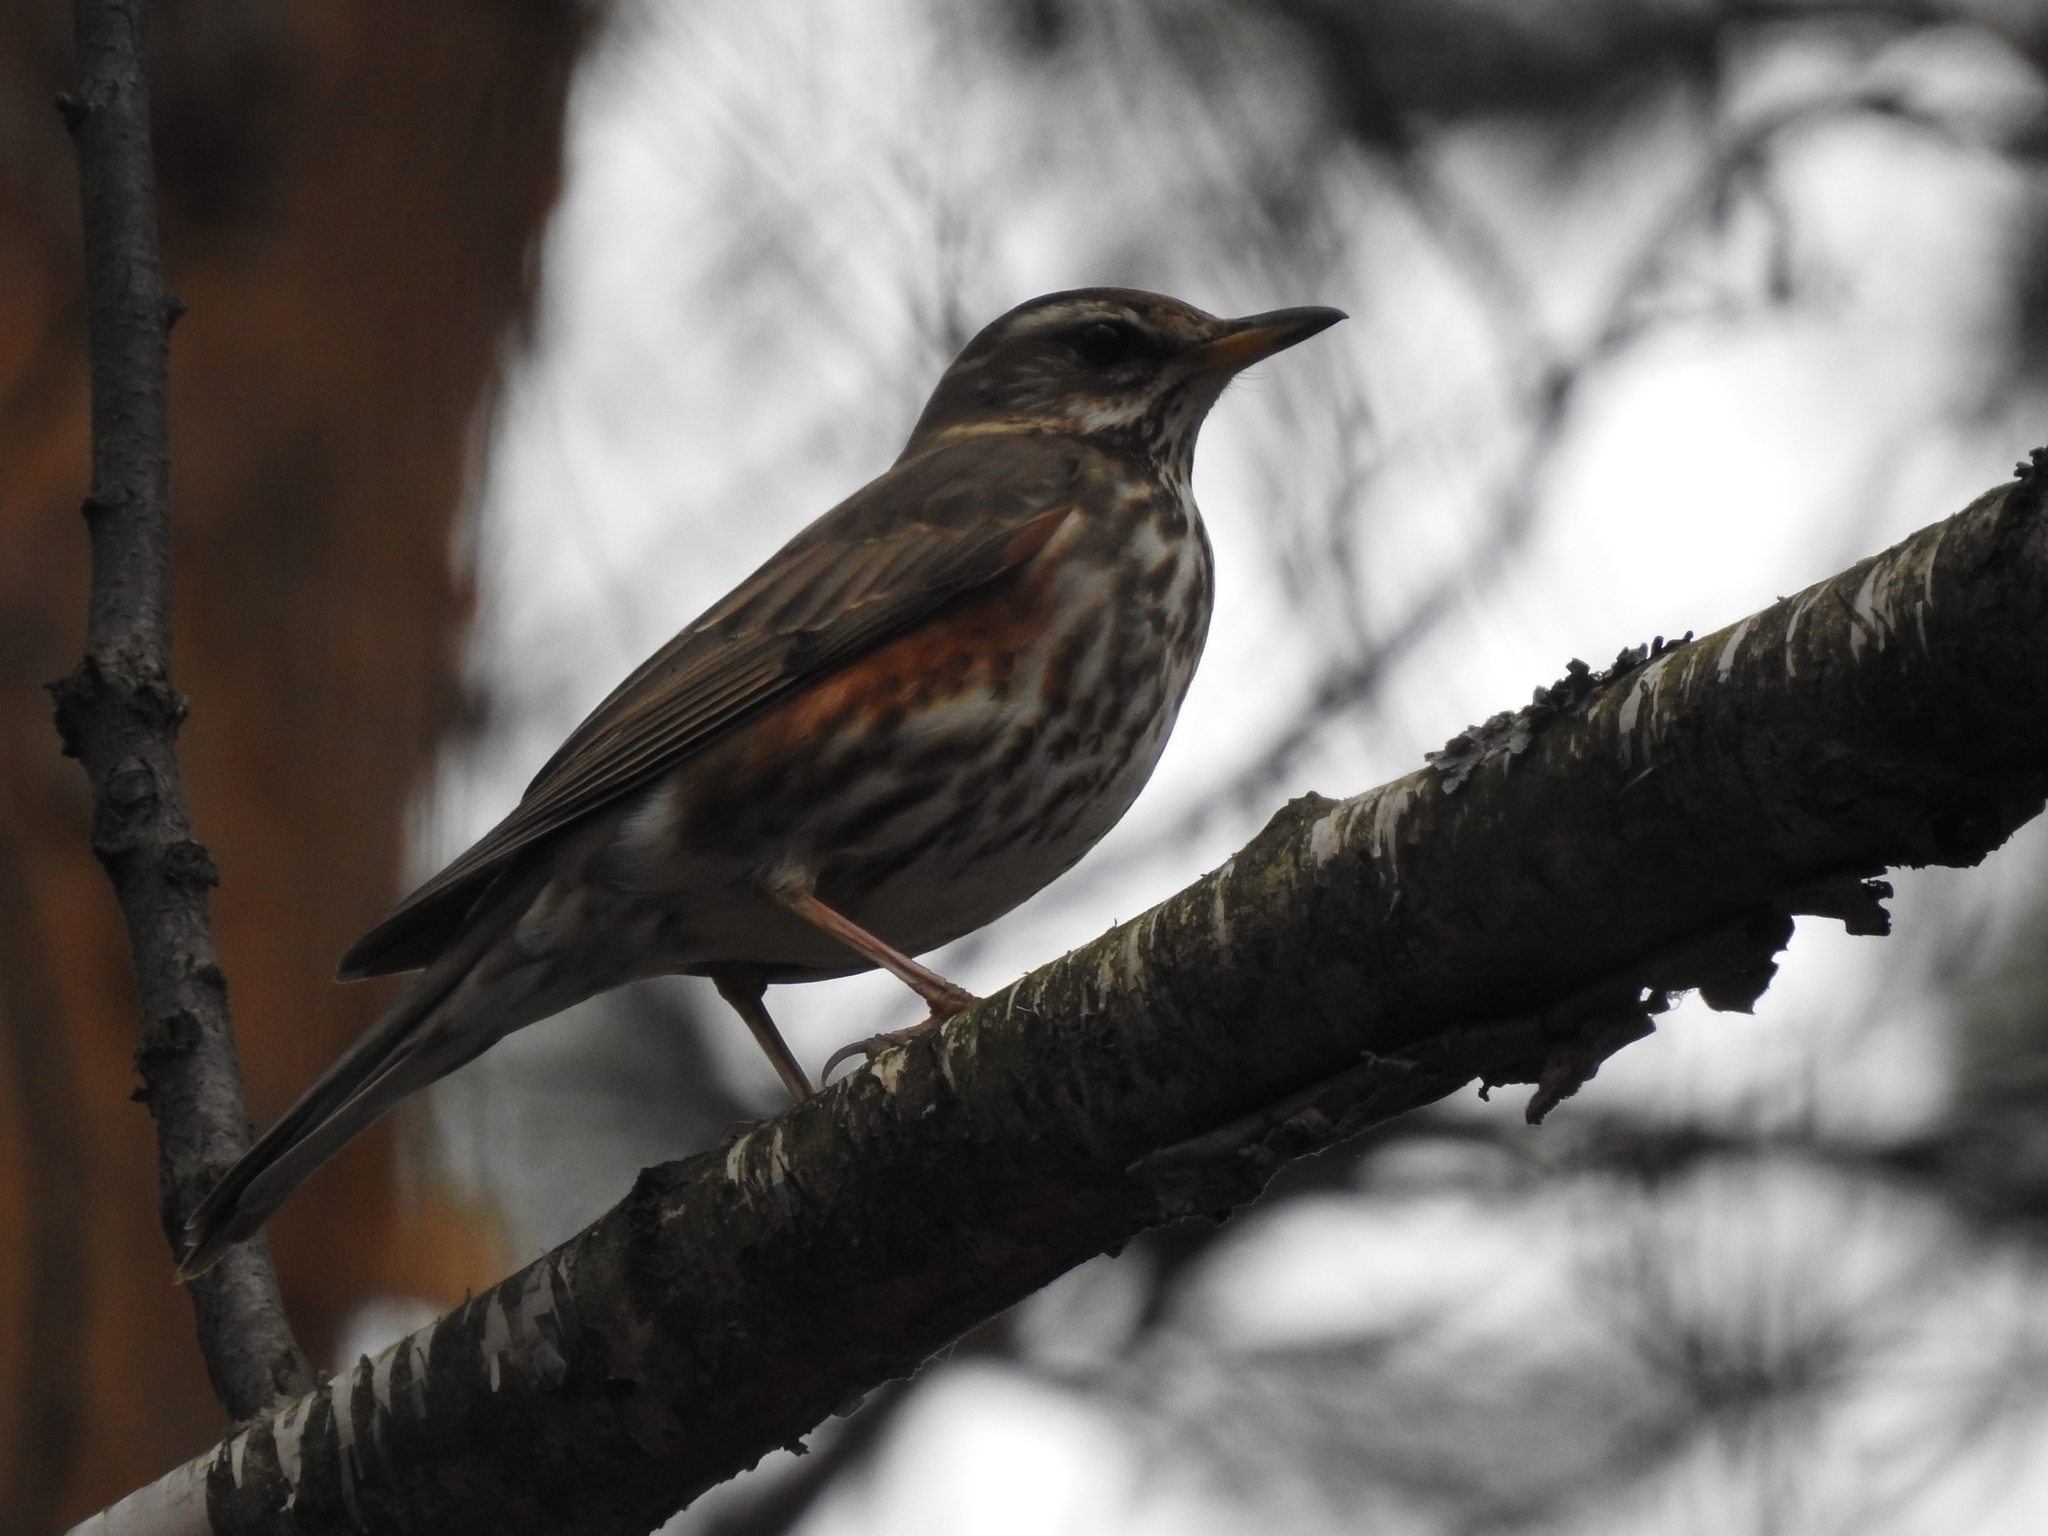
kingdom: Animalia
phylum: Chordata
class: Aves
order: Passeriformes
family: Turdidae
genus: Turdus
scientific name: Turdus iliacus
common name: Redwing
